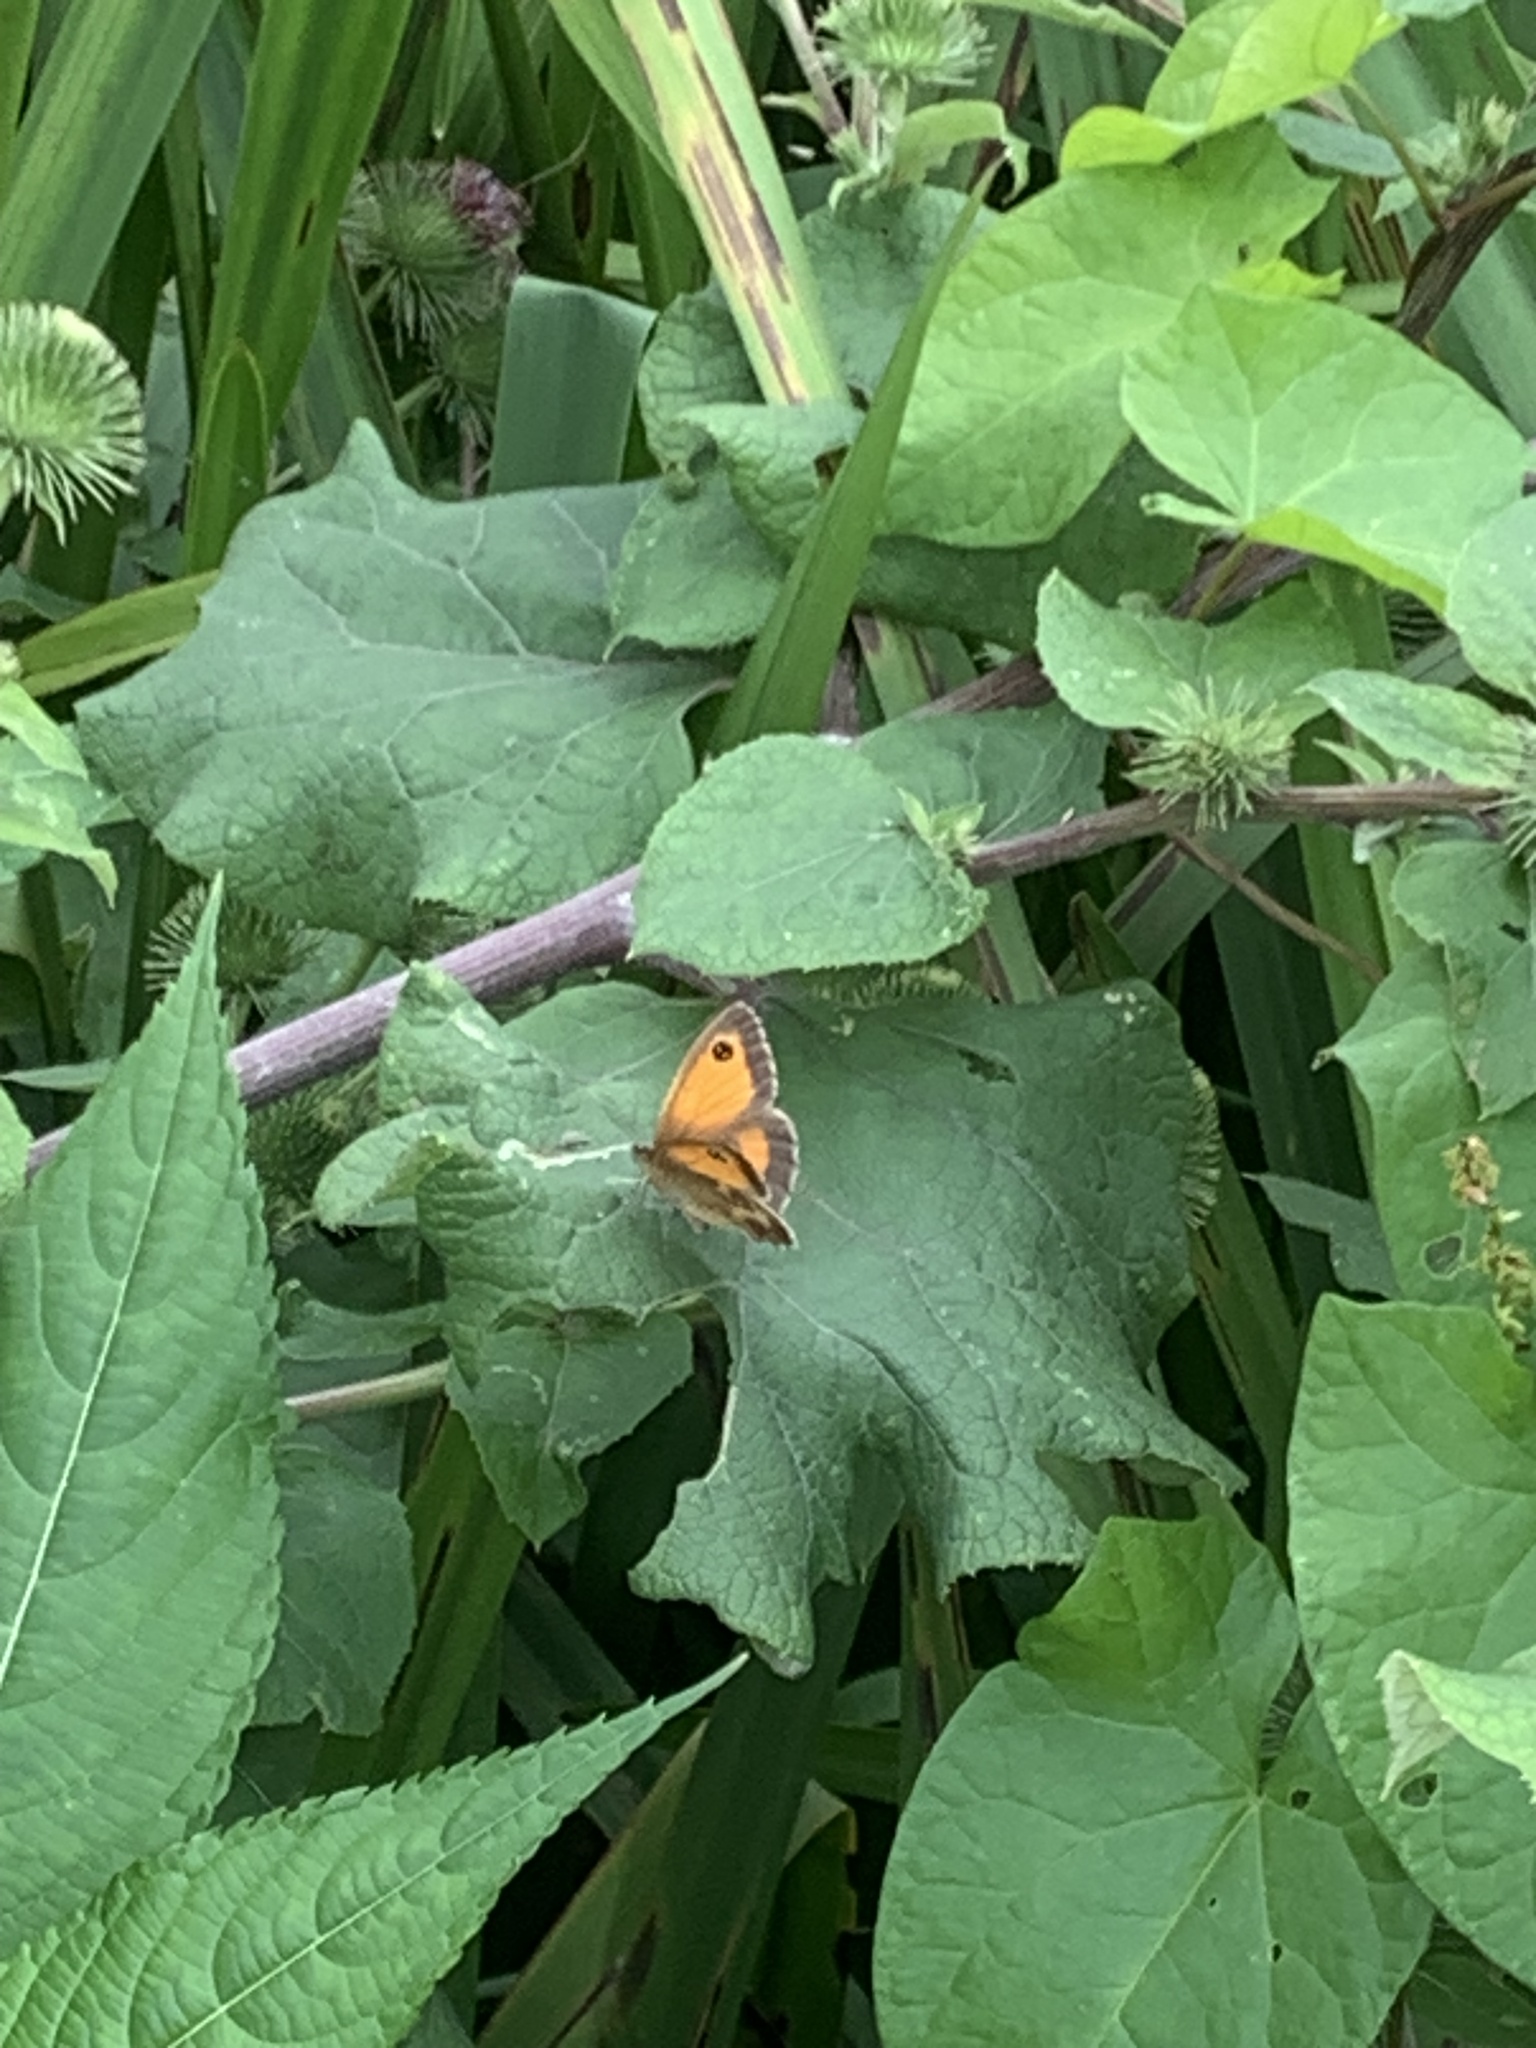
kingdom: Animalia
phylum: Arthropoda
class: Insecta
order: Lepidoptera
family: Nymphalidae
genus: Pyronia
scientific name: Pyronia tithonus
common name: Gatekeeper
